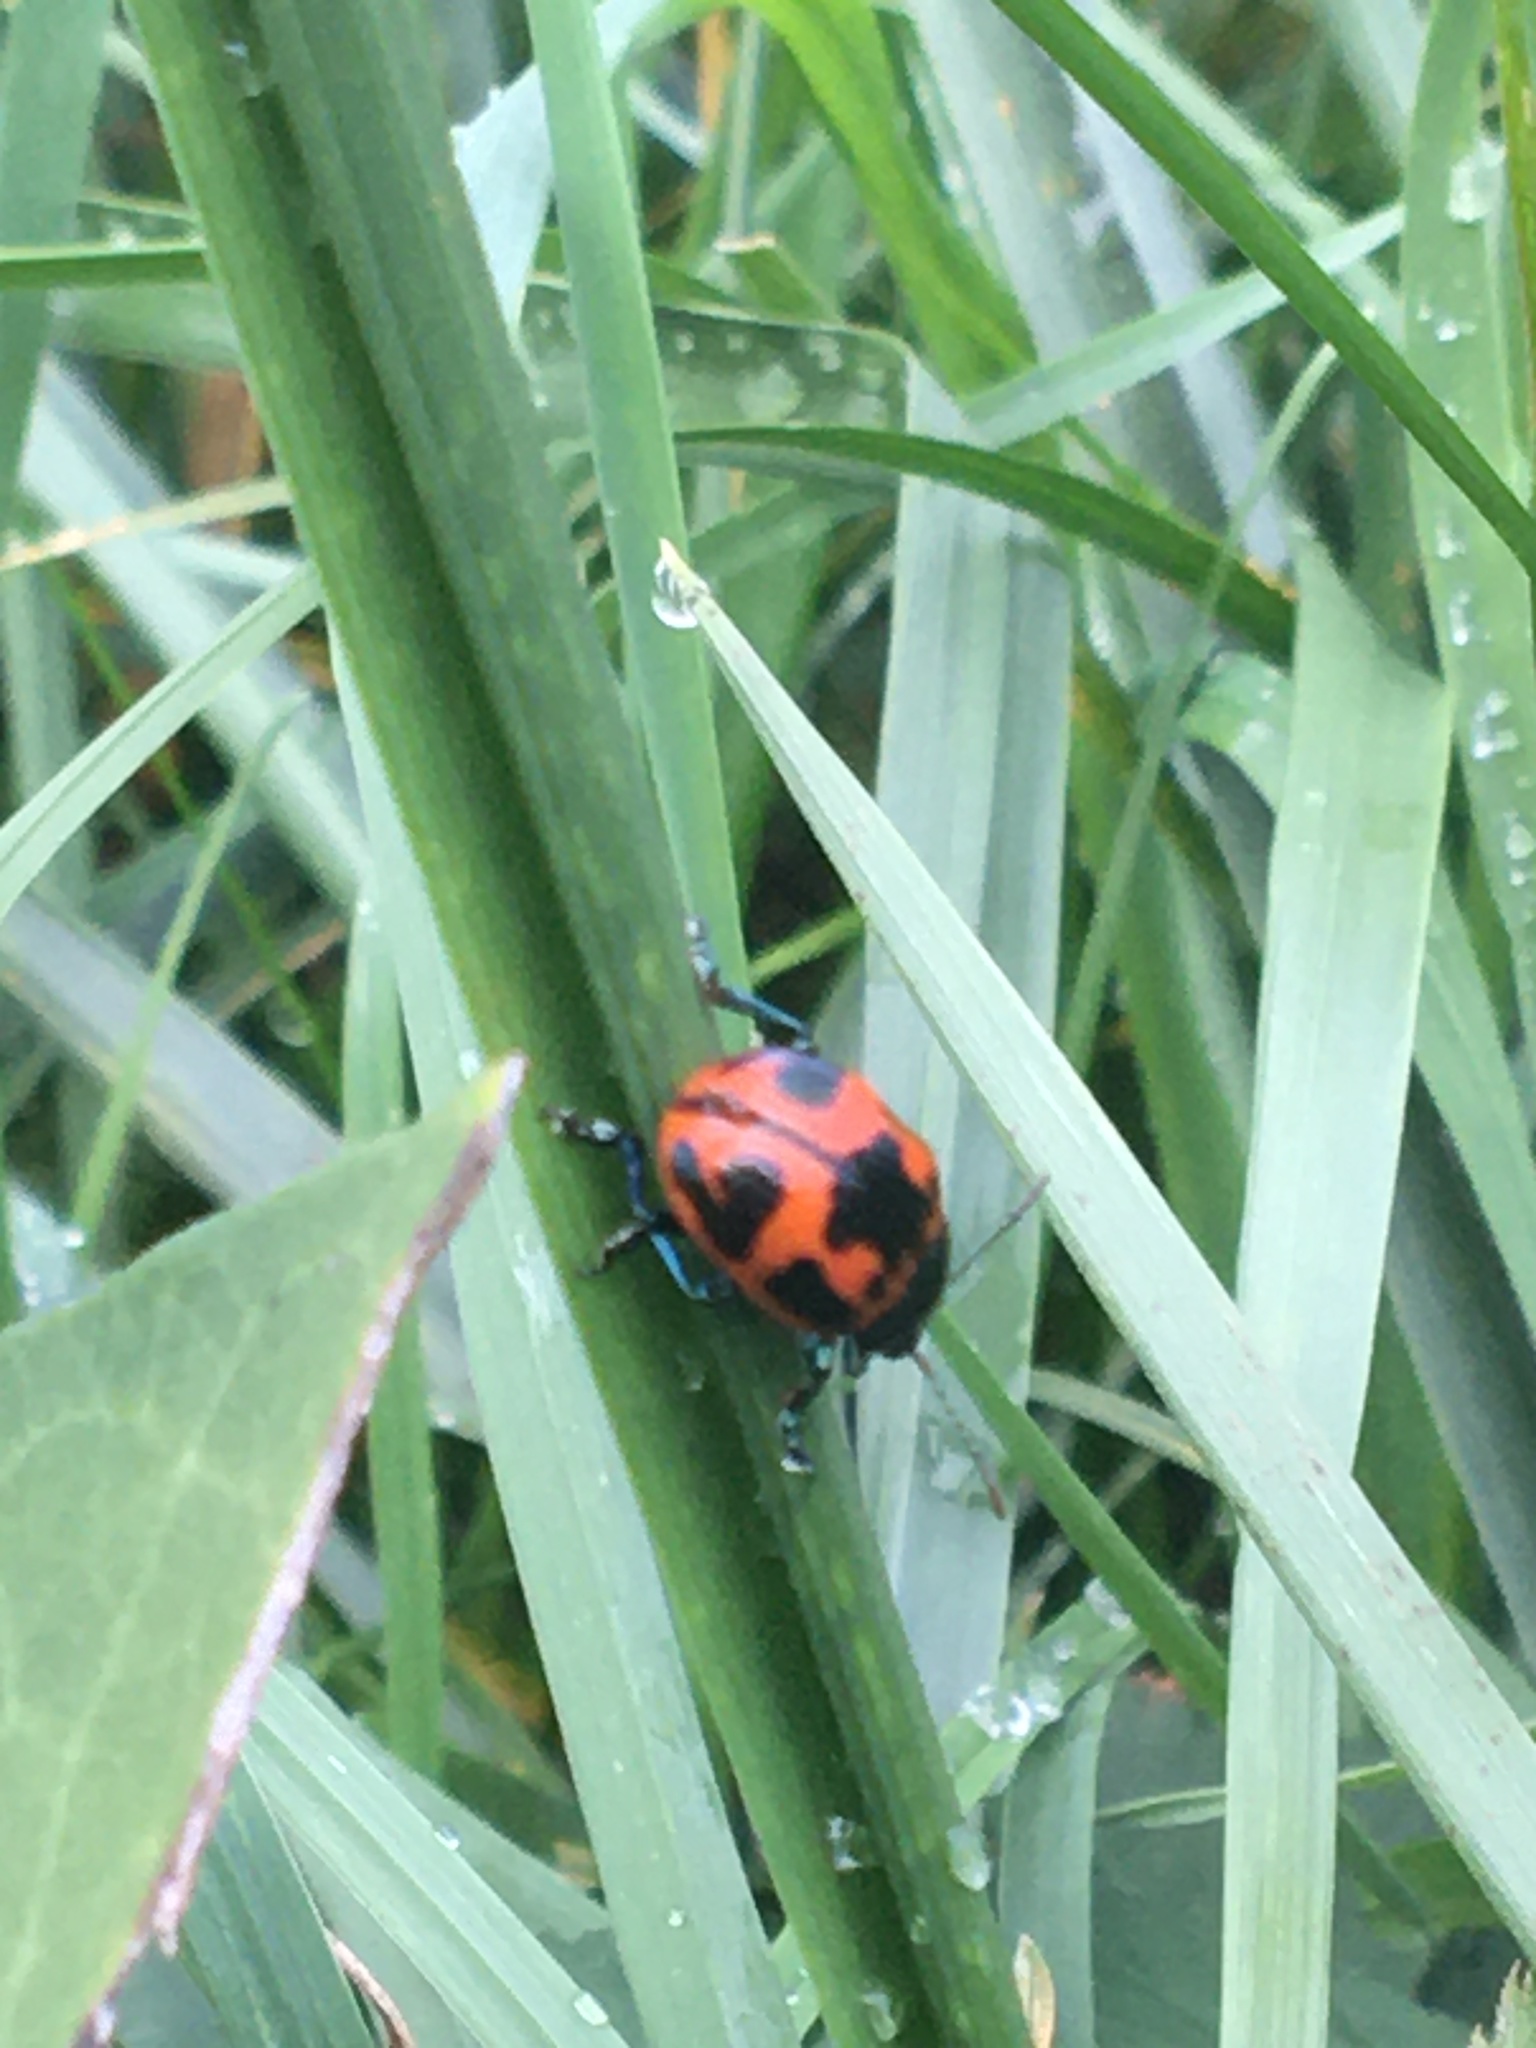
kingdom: Animalia
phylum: Arthropoda
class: Insecta
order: Coleoptera
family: Chrysomelidae
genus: Labidomera
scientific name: Labidomera clivicollis
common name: Swamp milkweed leaf beetle
